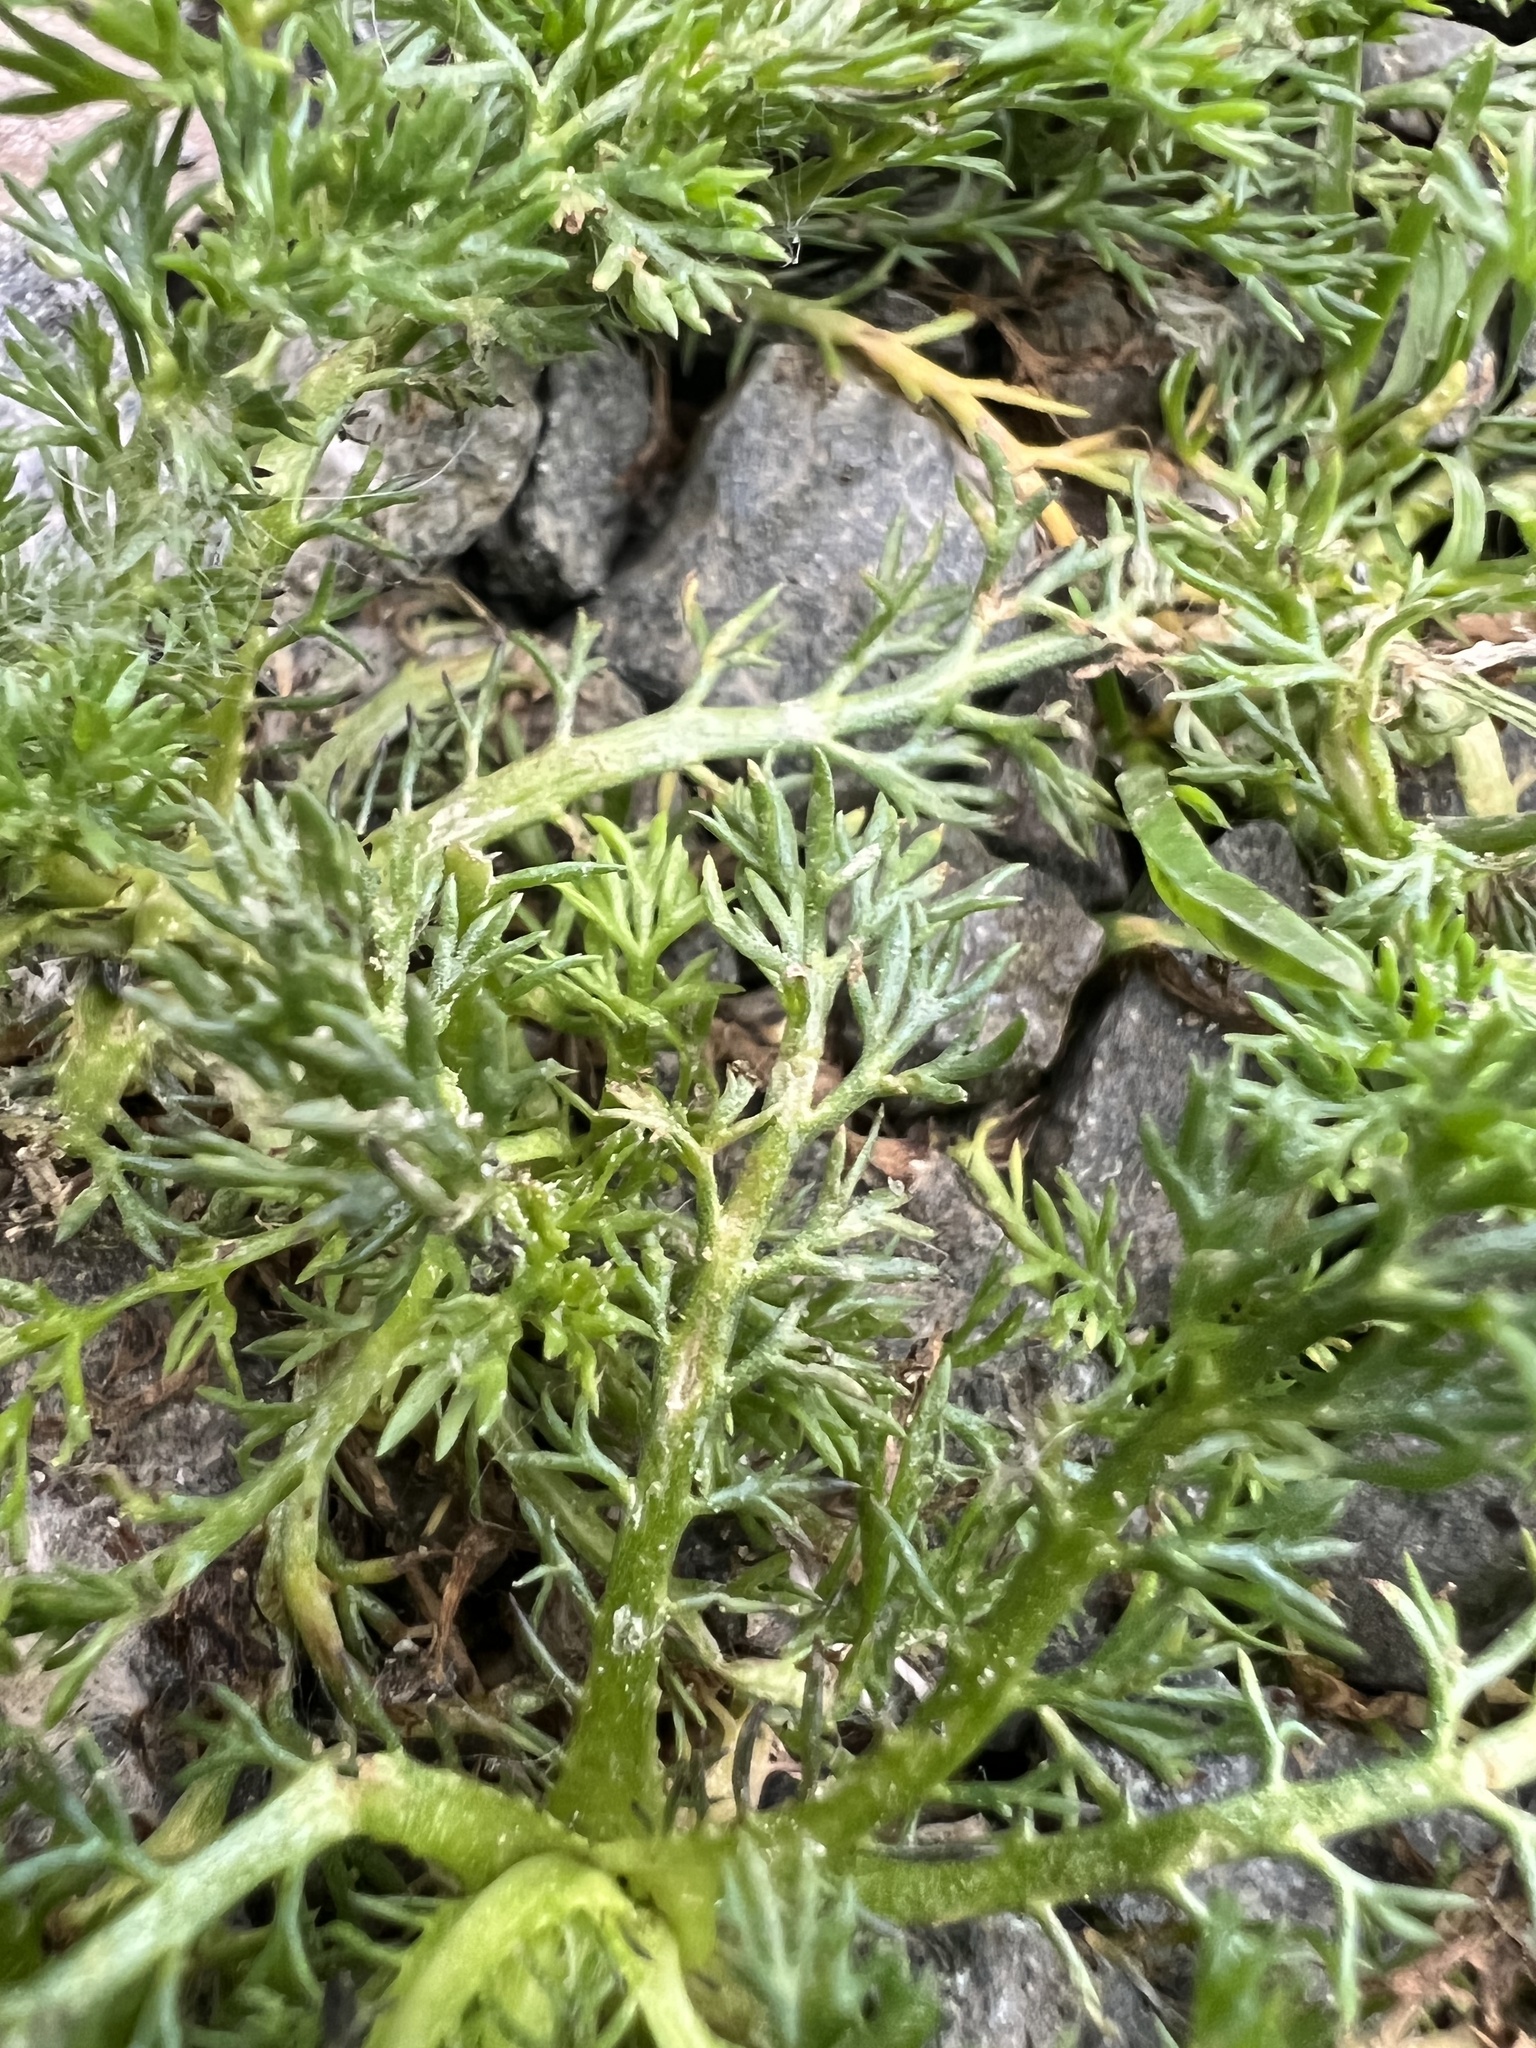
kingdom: Plantae
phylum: Tracheophyta
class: Magnoliopsida
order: Asterales
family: Asteraceae
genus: Matricaria
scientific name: Matricaria discoidea
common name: Disc mayweed
